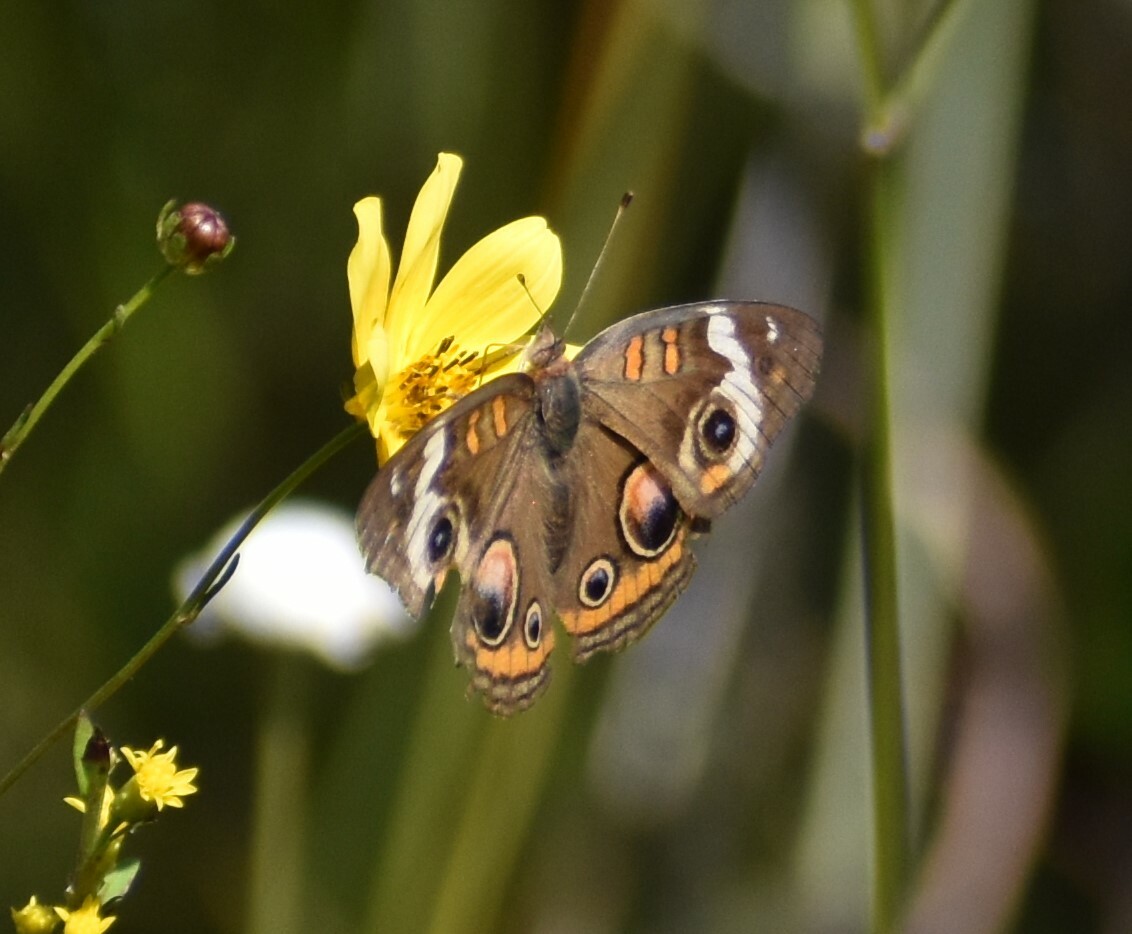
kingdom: Animalia
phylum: Arthropoda
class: Insecta
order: Lepidoptera
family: Nymphalidae
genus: Junonia
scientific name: Junonia coenia
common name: Common buckeye
